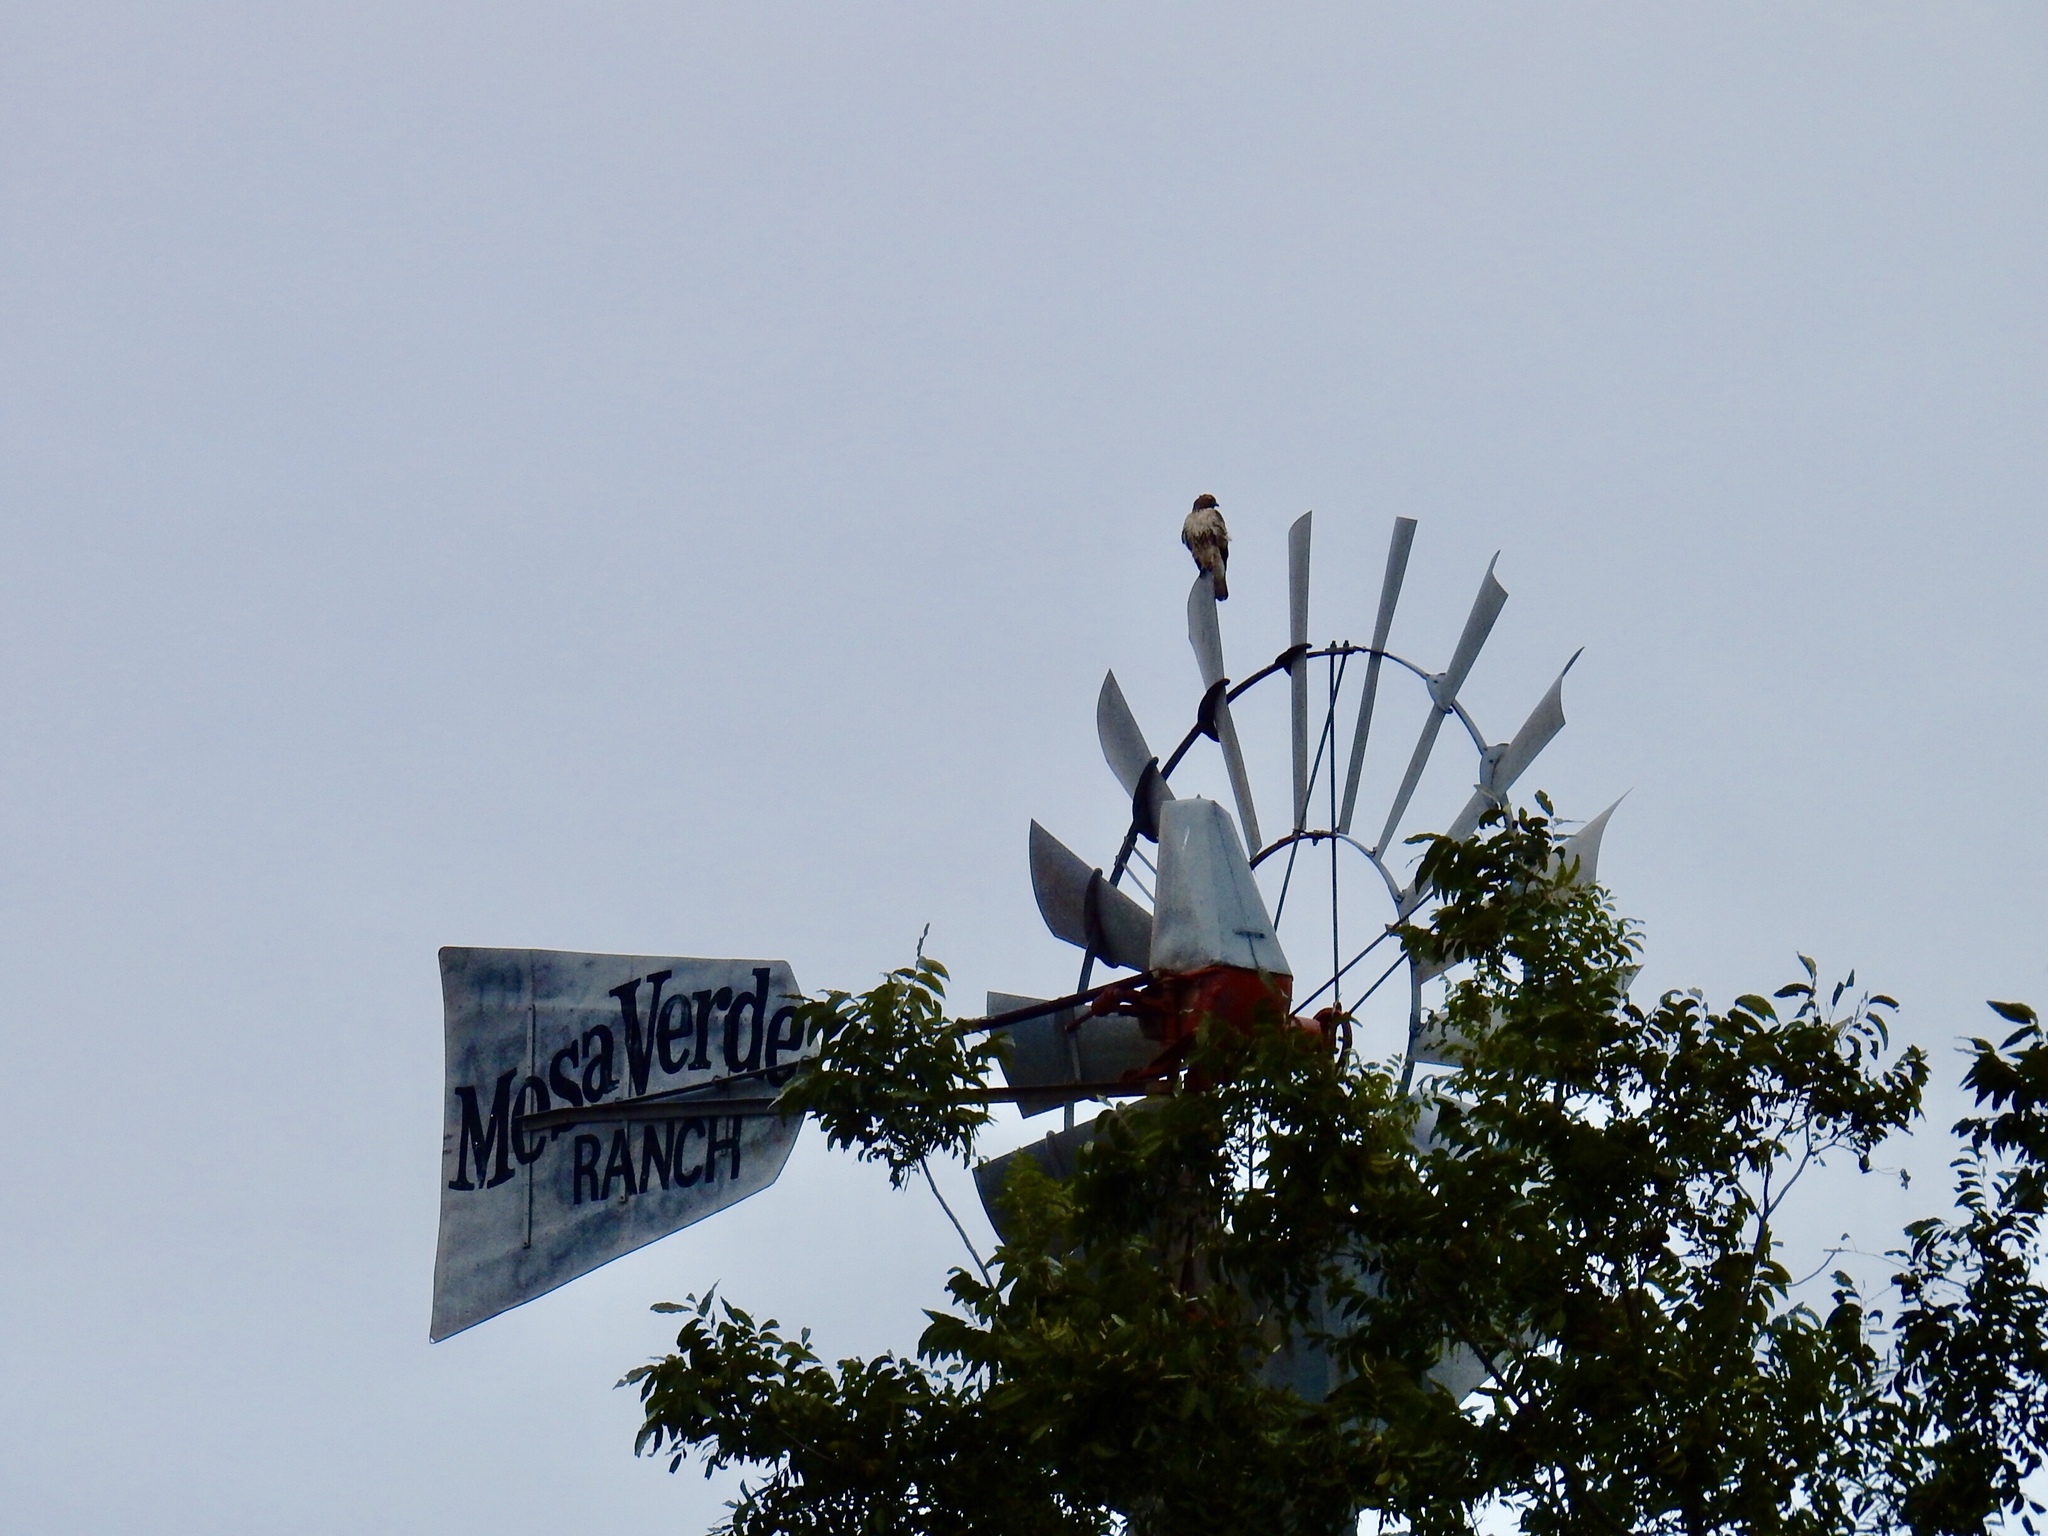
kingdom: Animalia
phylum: Chordata
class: Aves
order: Accipitriformes
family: Accipitridae
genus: Buteo
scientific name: Buteo jamaicensis
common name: Red-tailed hawk
